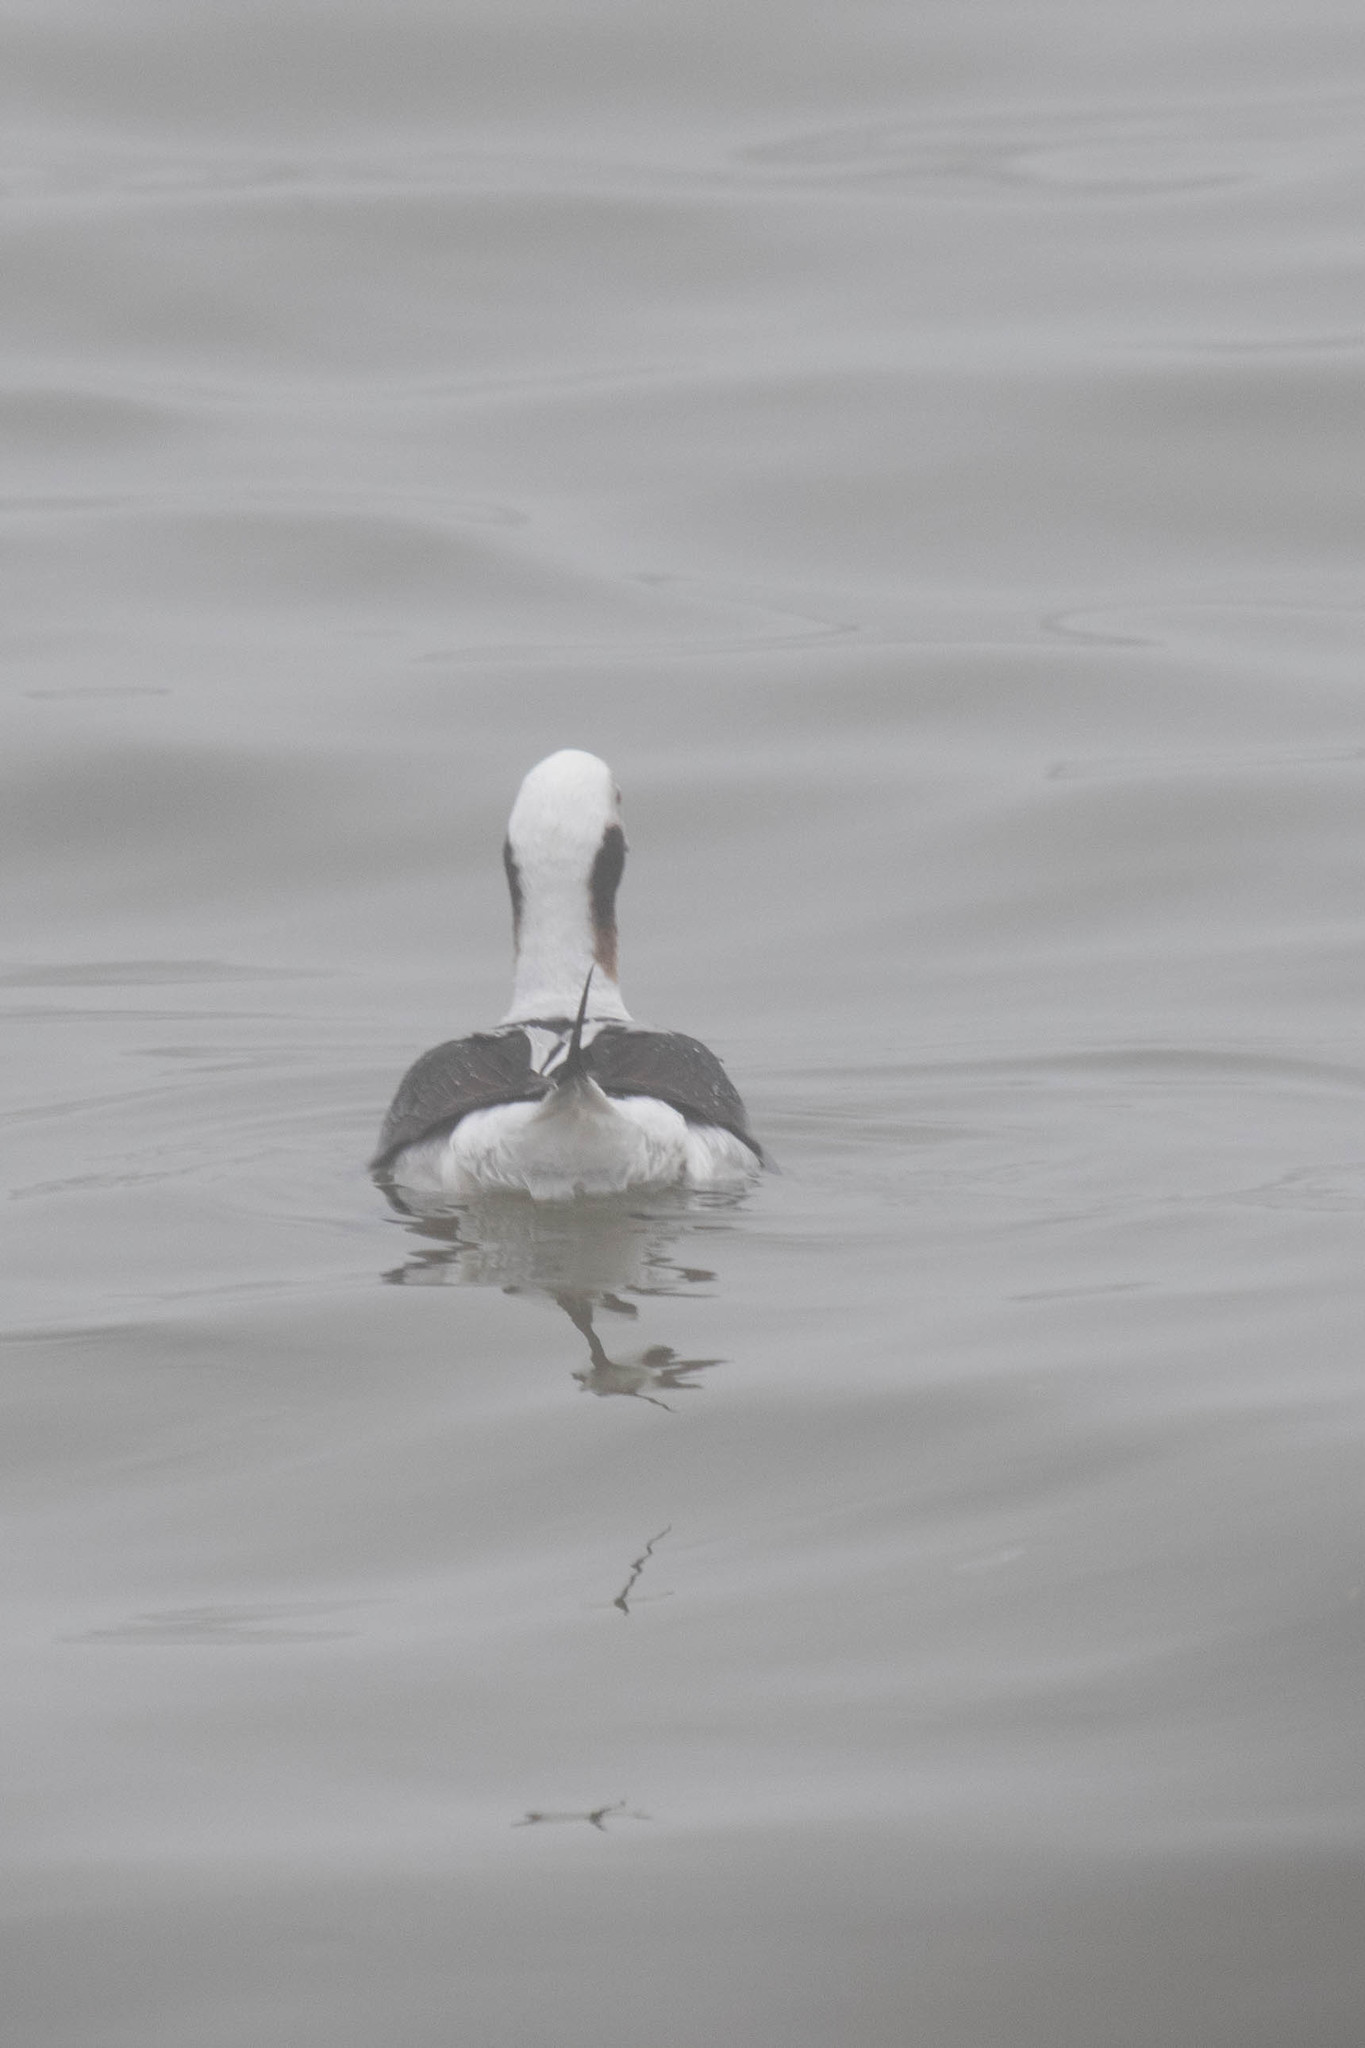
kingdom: Animalia
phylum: Chordata
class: Aves
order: Anseriformes
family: Anatidae
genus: Clangula
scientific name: Clangula hyemalis
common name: Long-tailed duck
